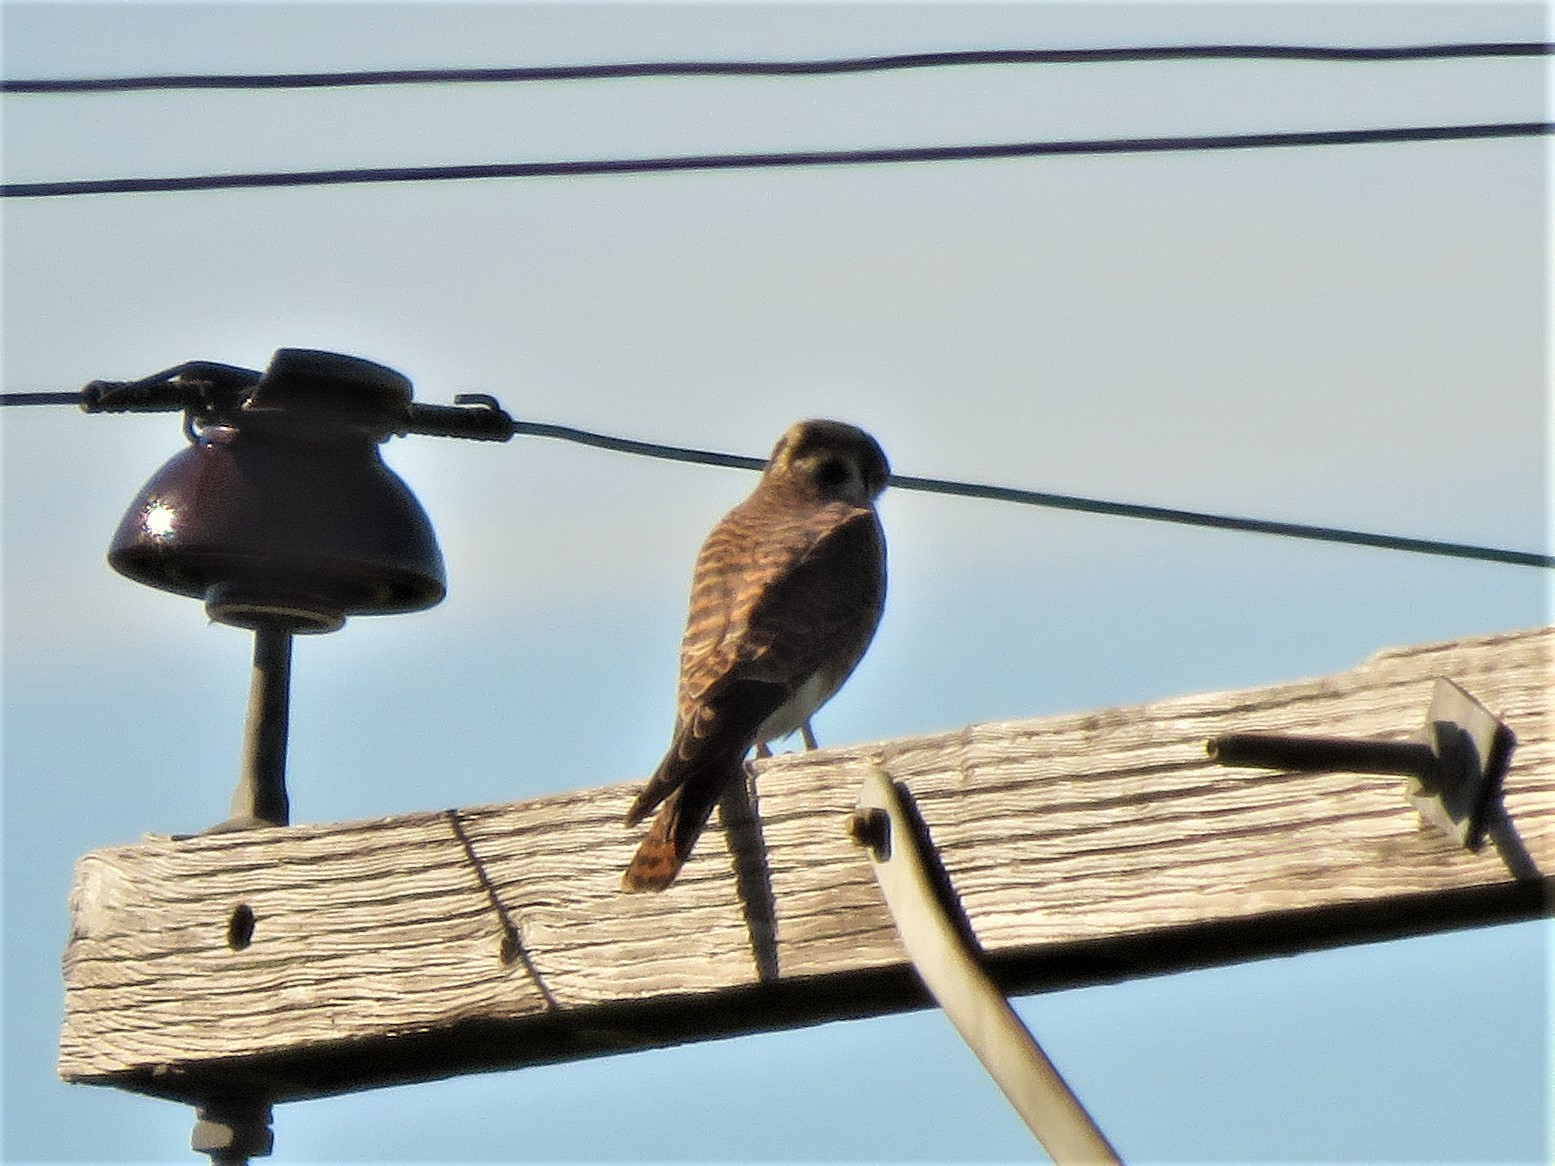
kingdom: Animalia
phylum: Chordata
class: Aves
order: Falconiformes
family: Falconidae
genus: Falco
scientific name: Falco sparverius
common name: American kestrel
